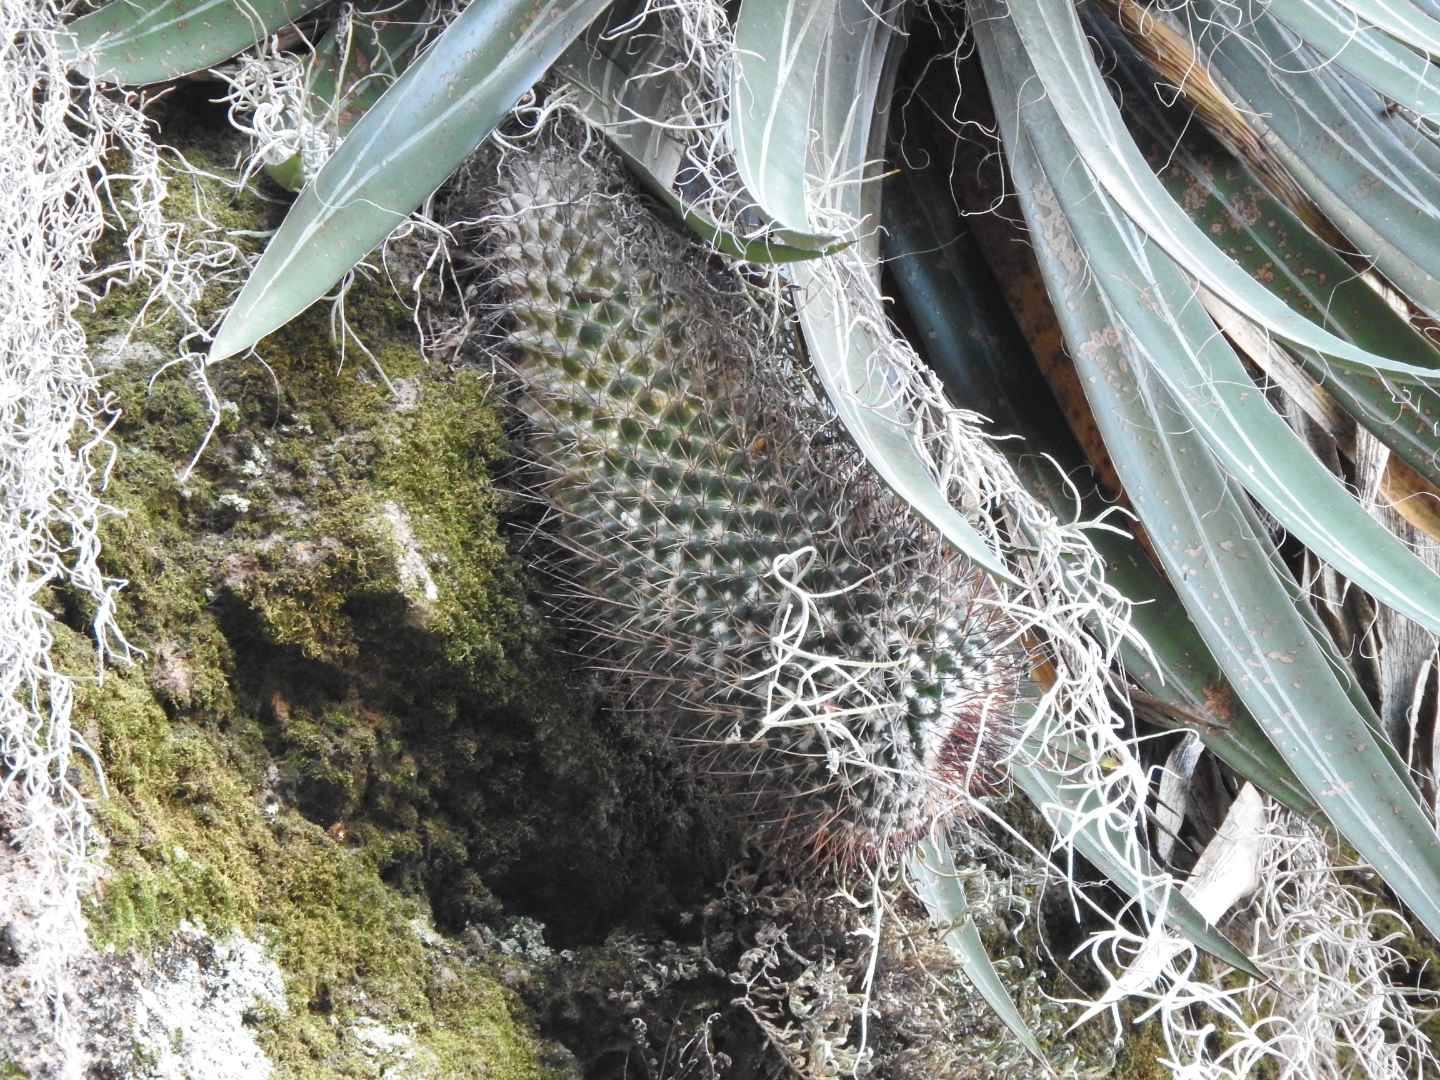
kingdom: Plantae
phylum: Tracheophyta
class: Magnoliopsida
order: Caryophyllales
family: Cactaceae
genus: Mammillaria
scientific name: Mammillaria petterssonii
